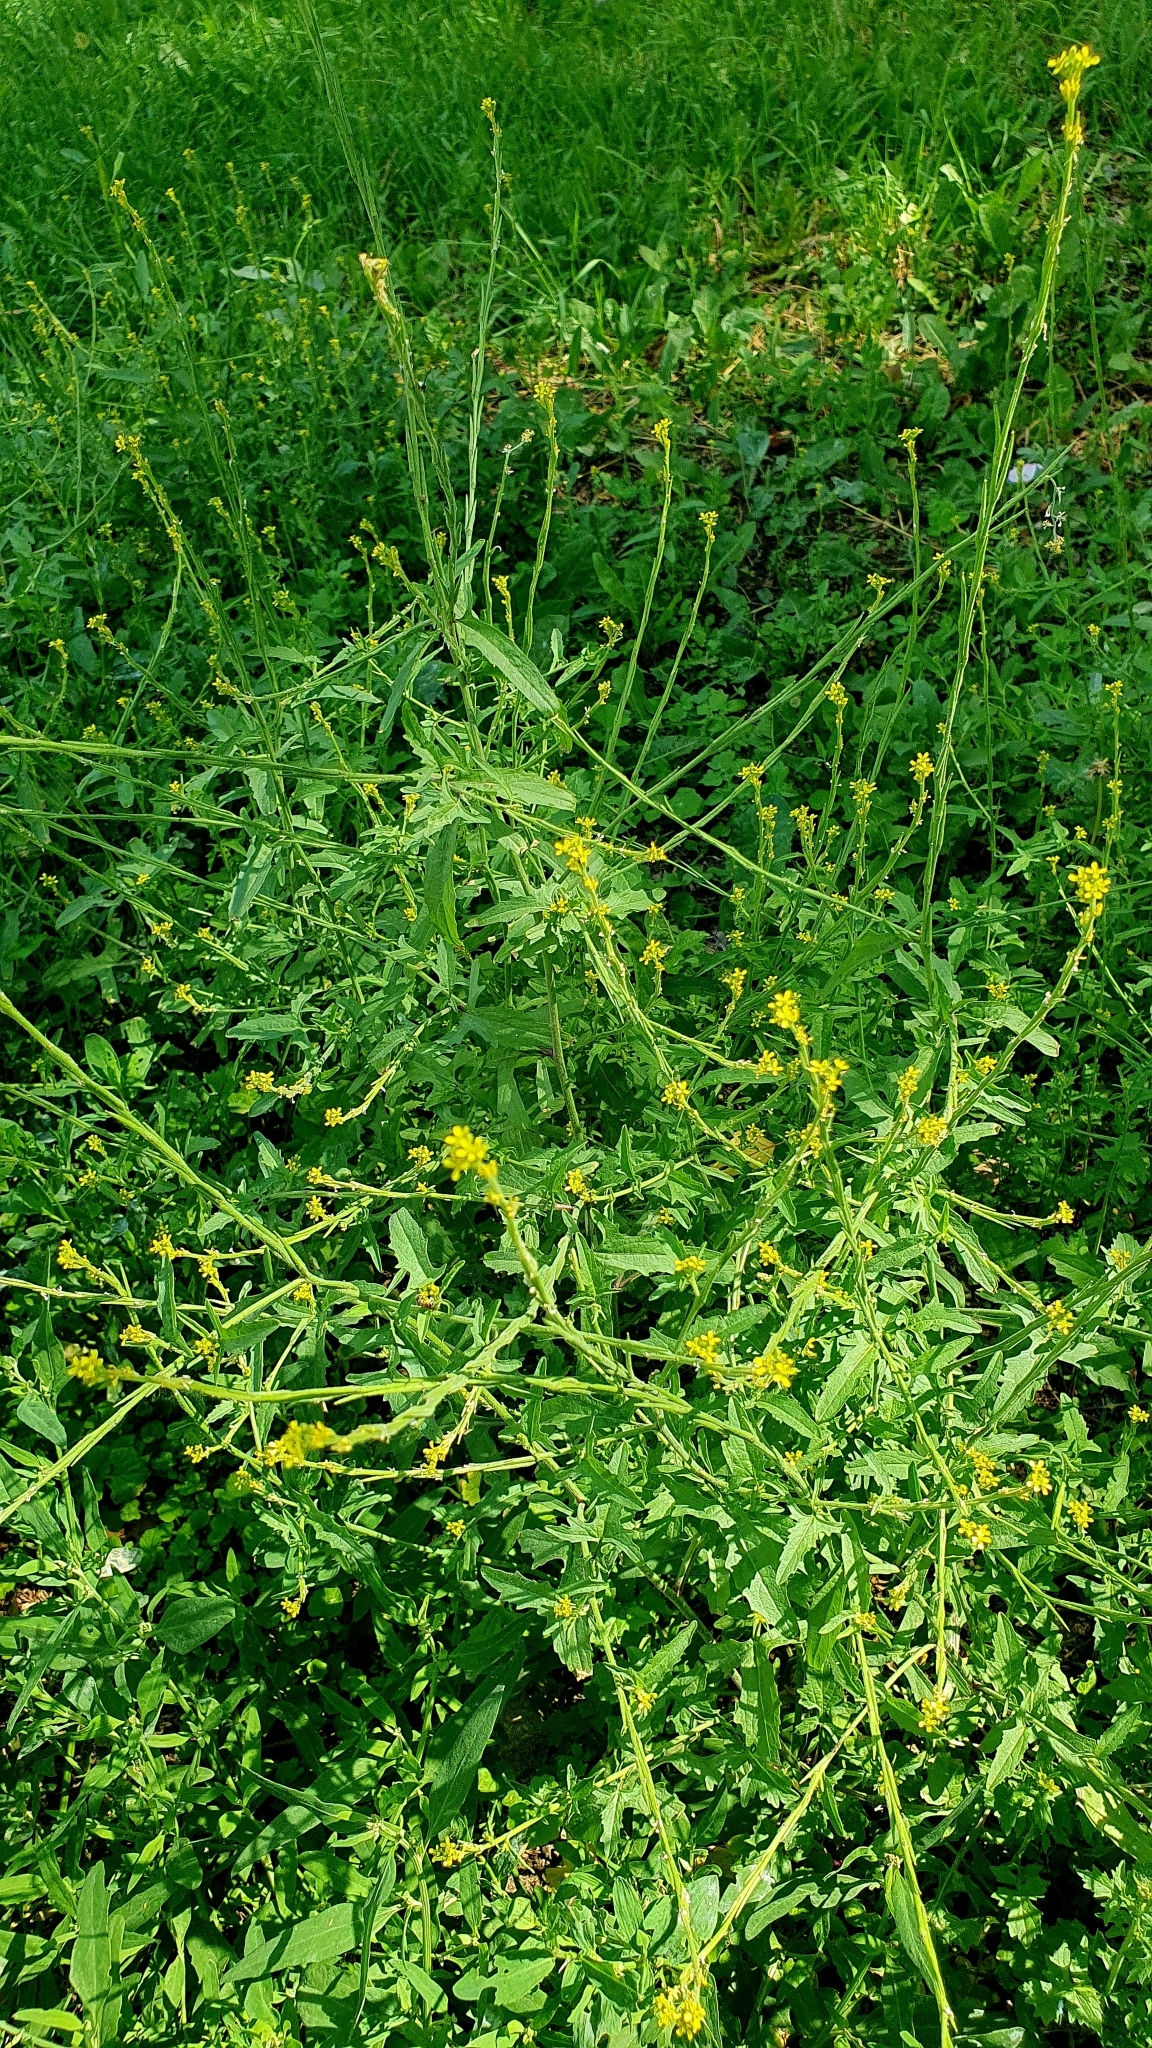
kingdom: Plantae
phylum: Tracheophyta
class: Magnoliopsida
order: Brassicales
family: Brassicaceae
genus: Sisymbrium
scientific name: Sisymbrium officinale
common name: Hedge mustard
